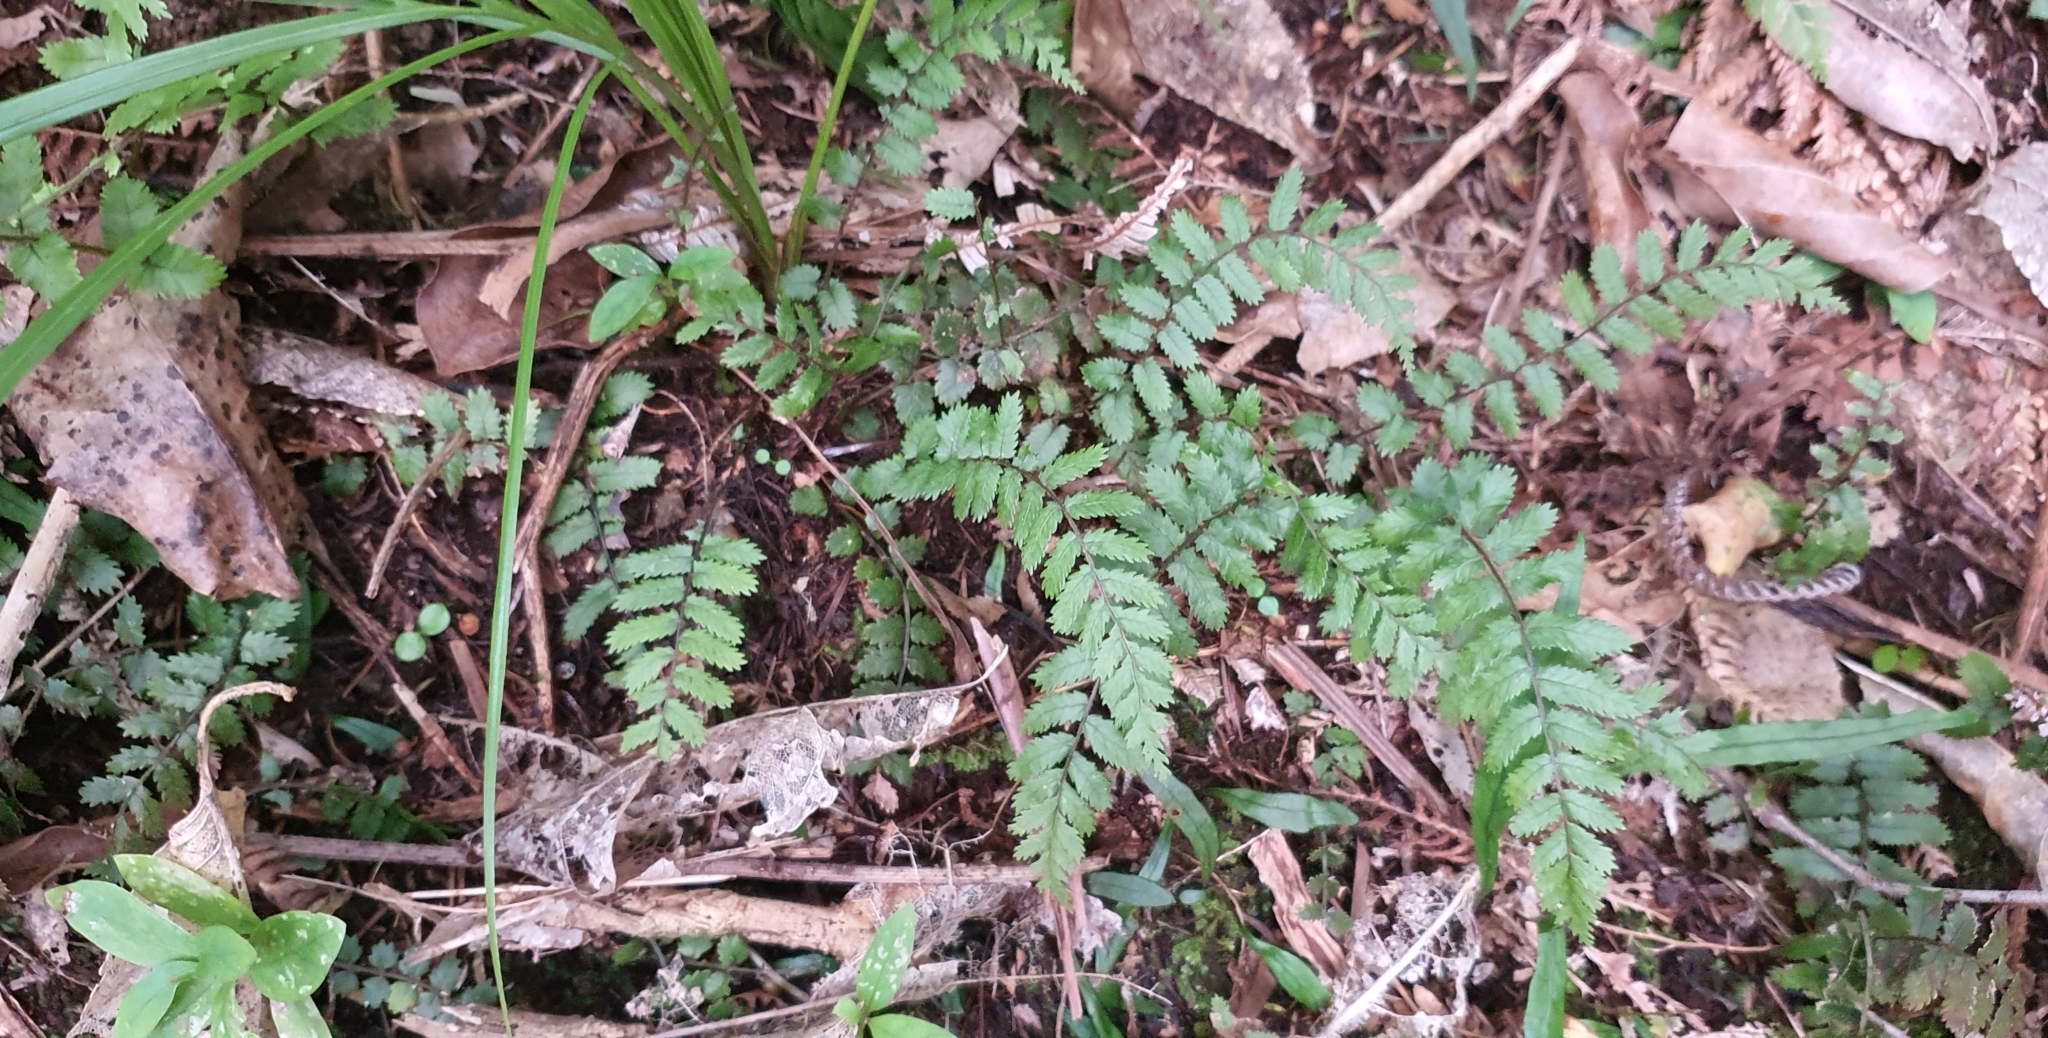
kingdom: Plantae
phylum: Tracheophyta
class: Polypodiopsida
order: Polypodiales
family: Blechnaceae
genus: Icarus
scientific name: Icarus filiformis
